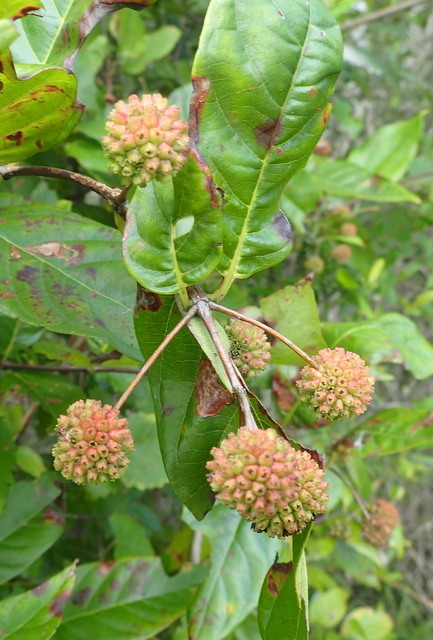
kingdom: Plantae
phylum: Tracheophyta
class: Magnoliopsida
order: Gentianales
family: Rubiaceae
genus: Cephalanthus
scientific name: Cephalanthus occidentalis
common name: Button-willow
